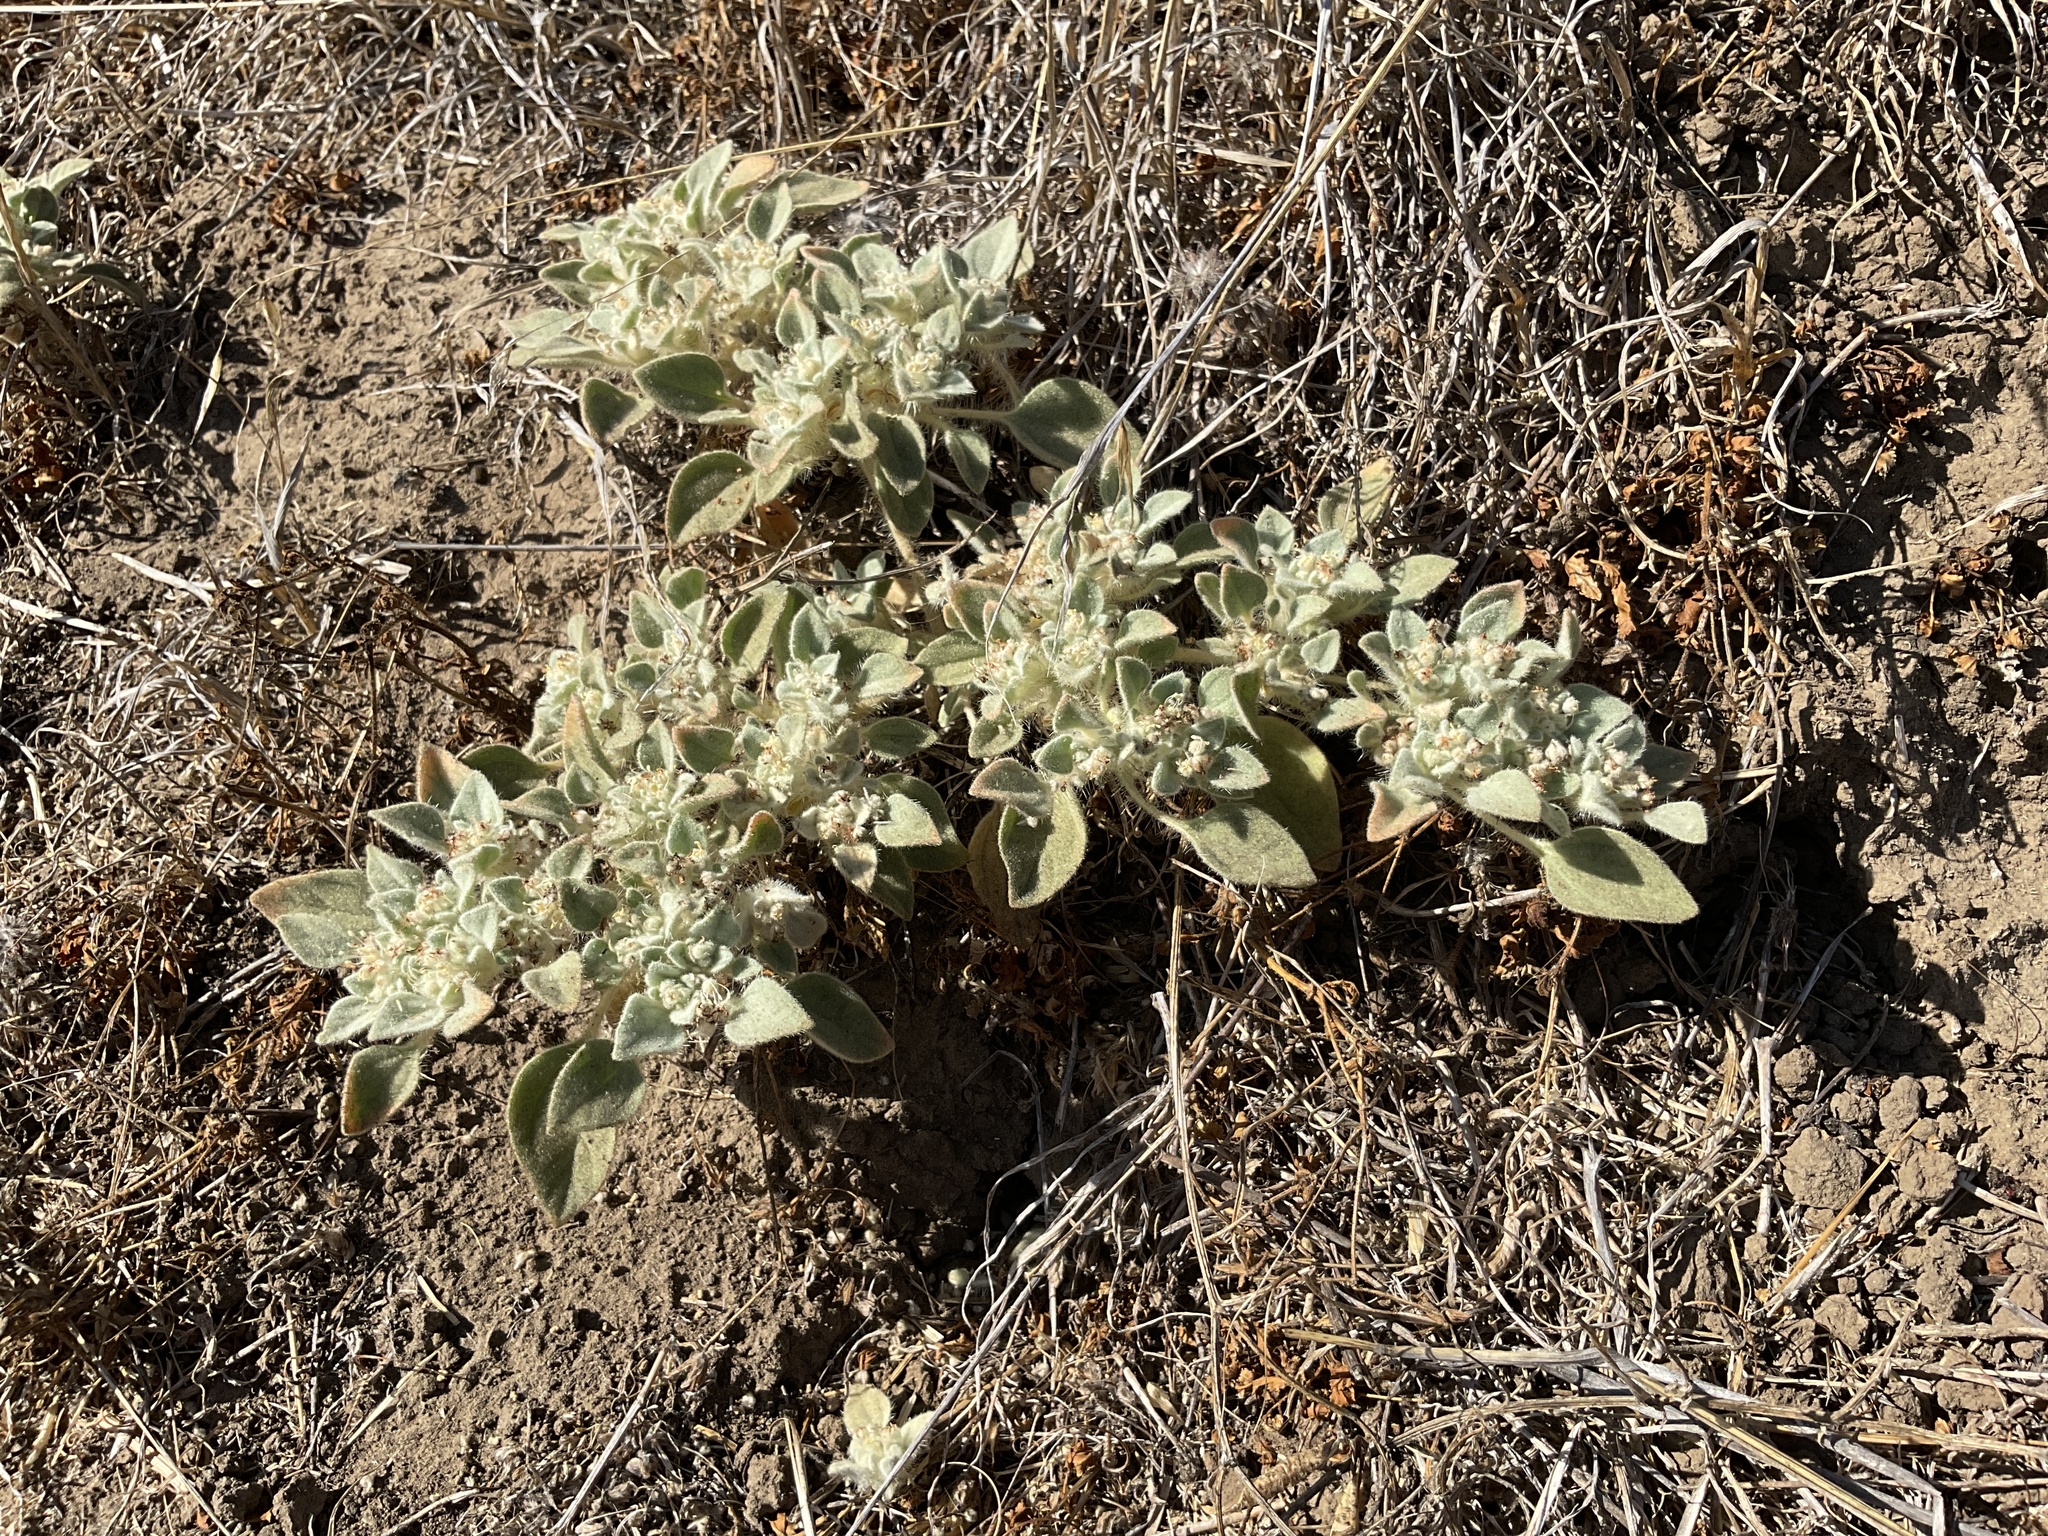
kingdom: Plantae
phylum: Tracheophyta
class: Magnoliopsida
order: Malpighiales
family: Euphorbiaceae
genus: Croton
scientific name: Croton setiger
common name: Dove weed
